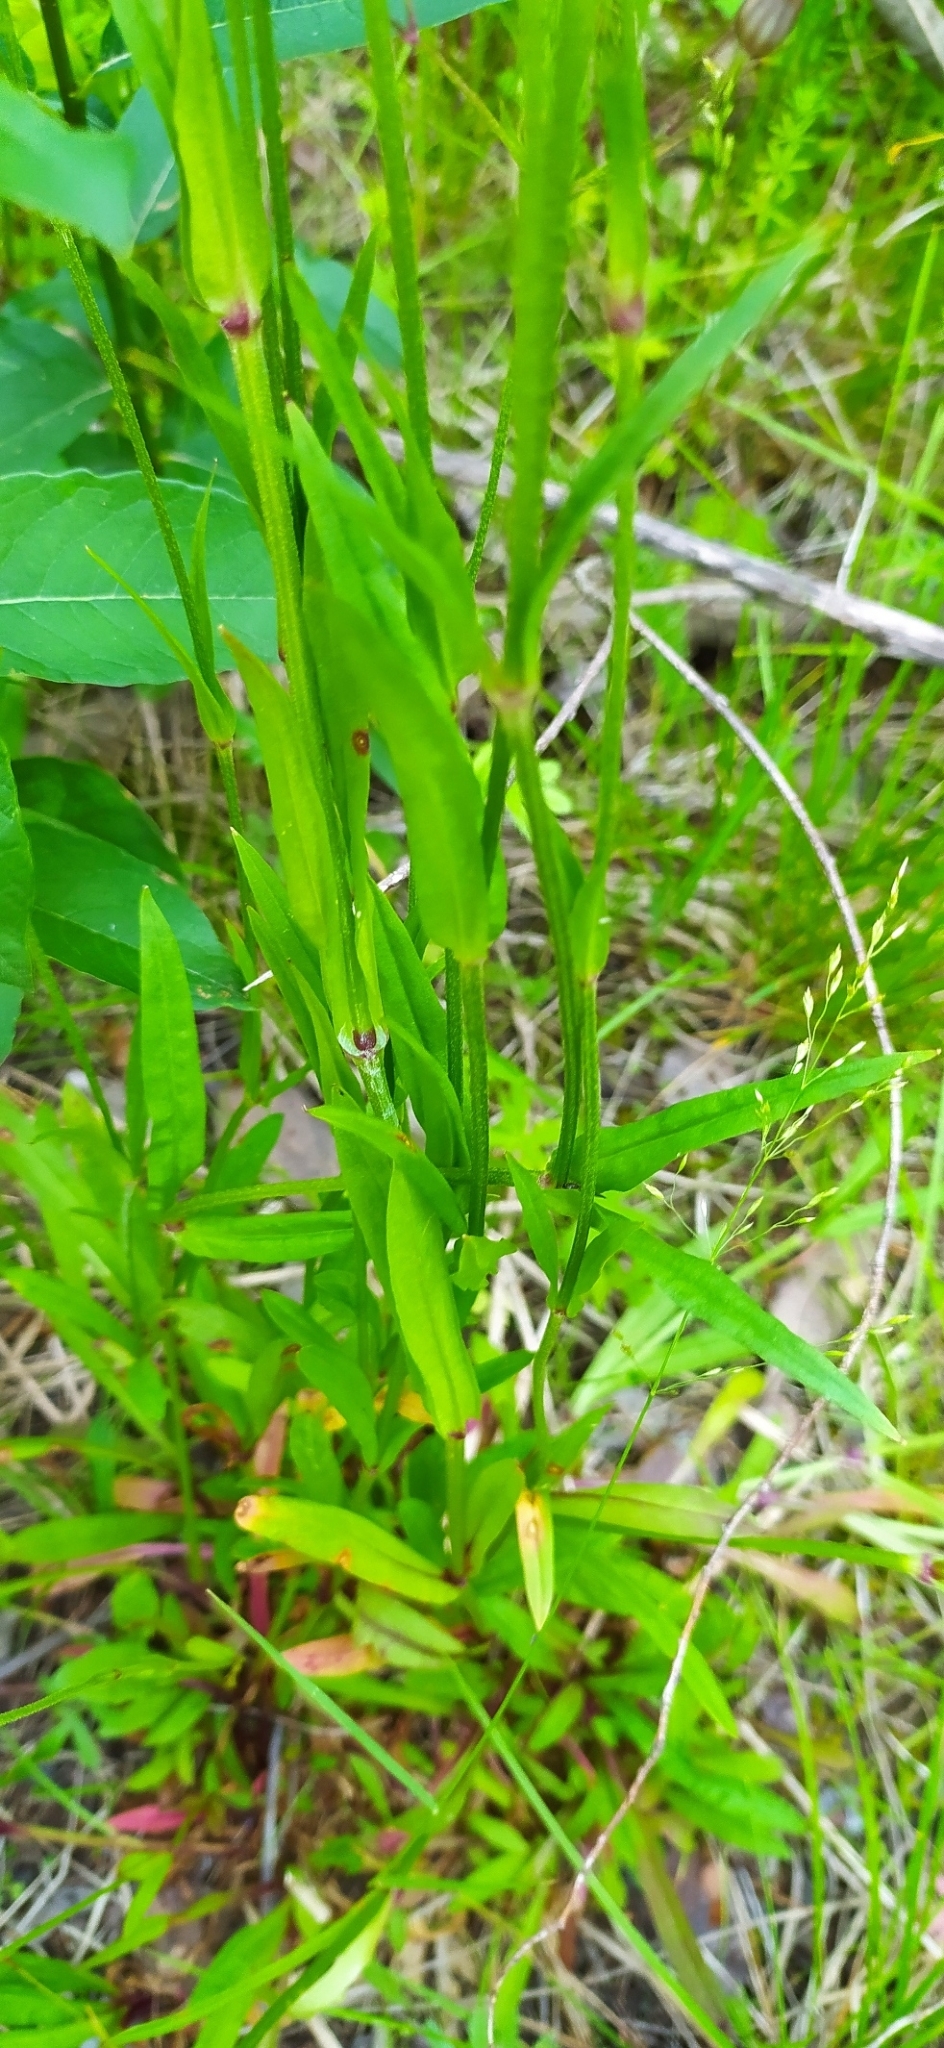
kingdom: Plantae
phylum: Tracheophyta
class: Magnoliopsida
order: Caryophyllales
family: Caryophyllaceae
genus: Silene
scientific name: Silene flos-cuculi
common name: Ragged-robin
